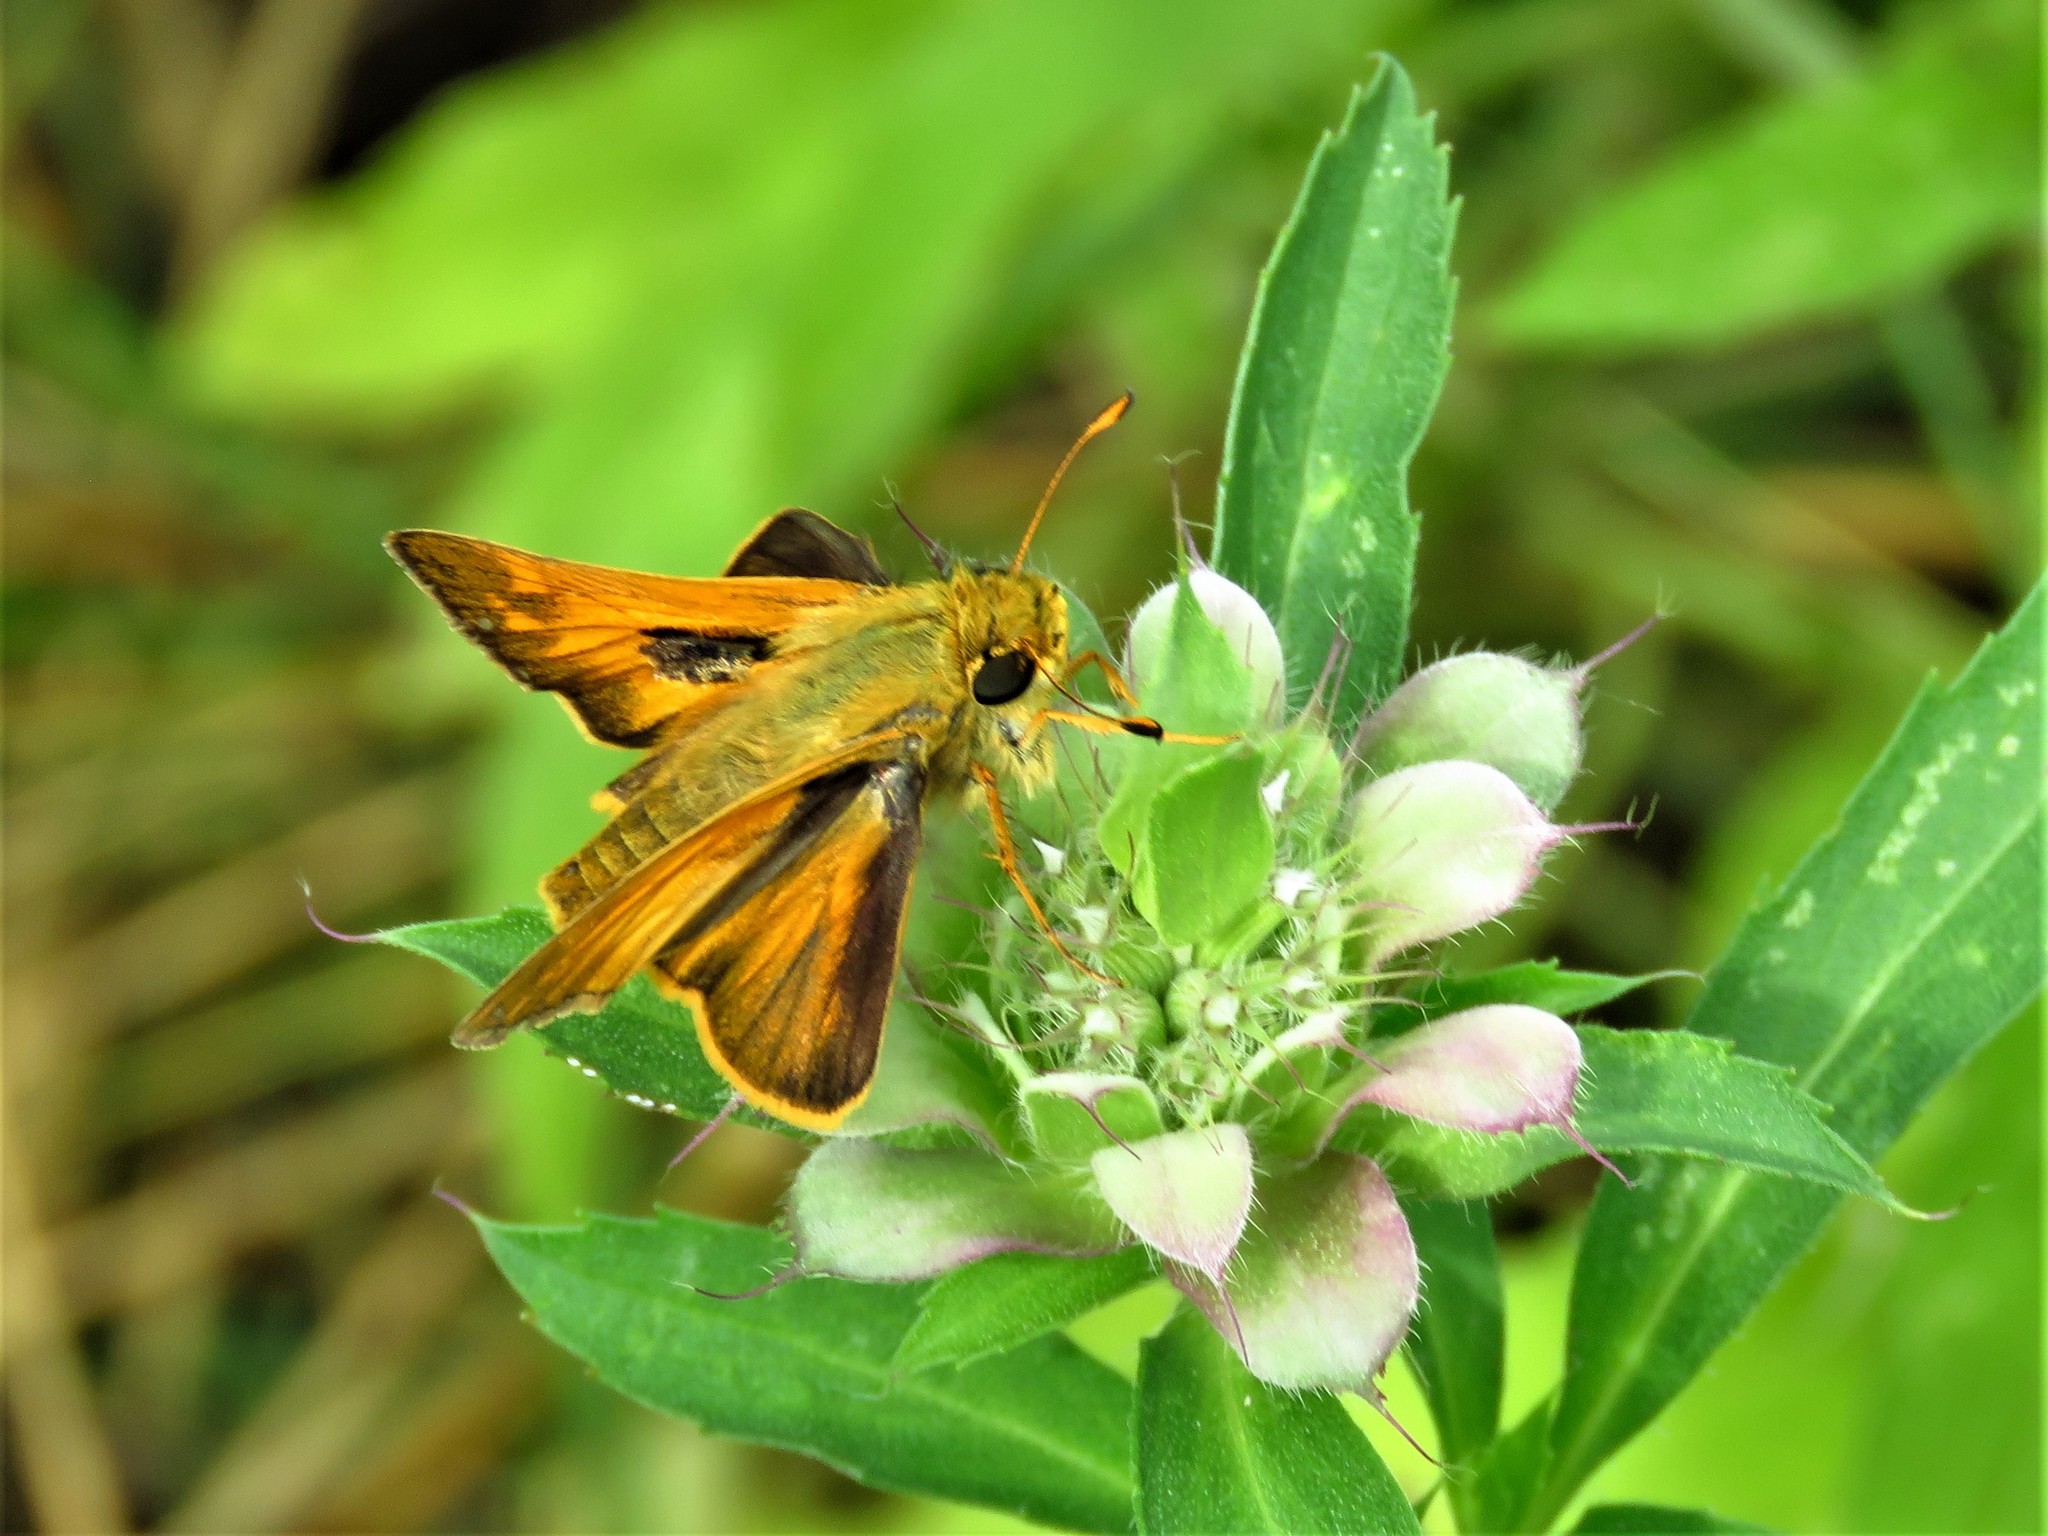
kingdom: Animalia
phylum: Arthropoda
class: Insecta
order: Lepidoptera
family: Hesperiidae
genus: Atalopedes
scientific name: Atalopedes
